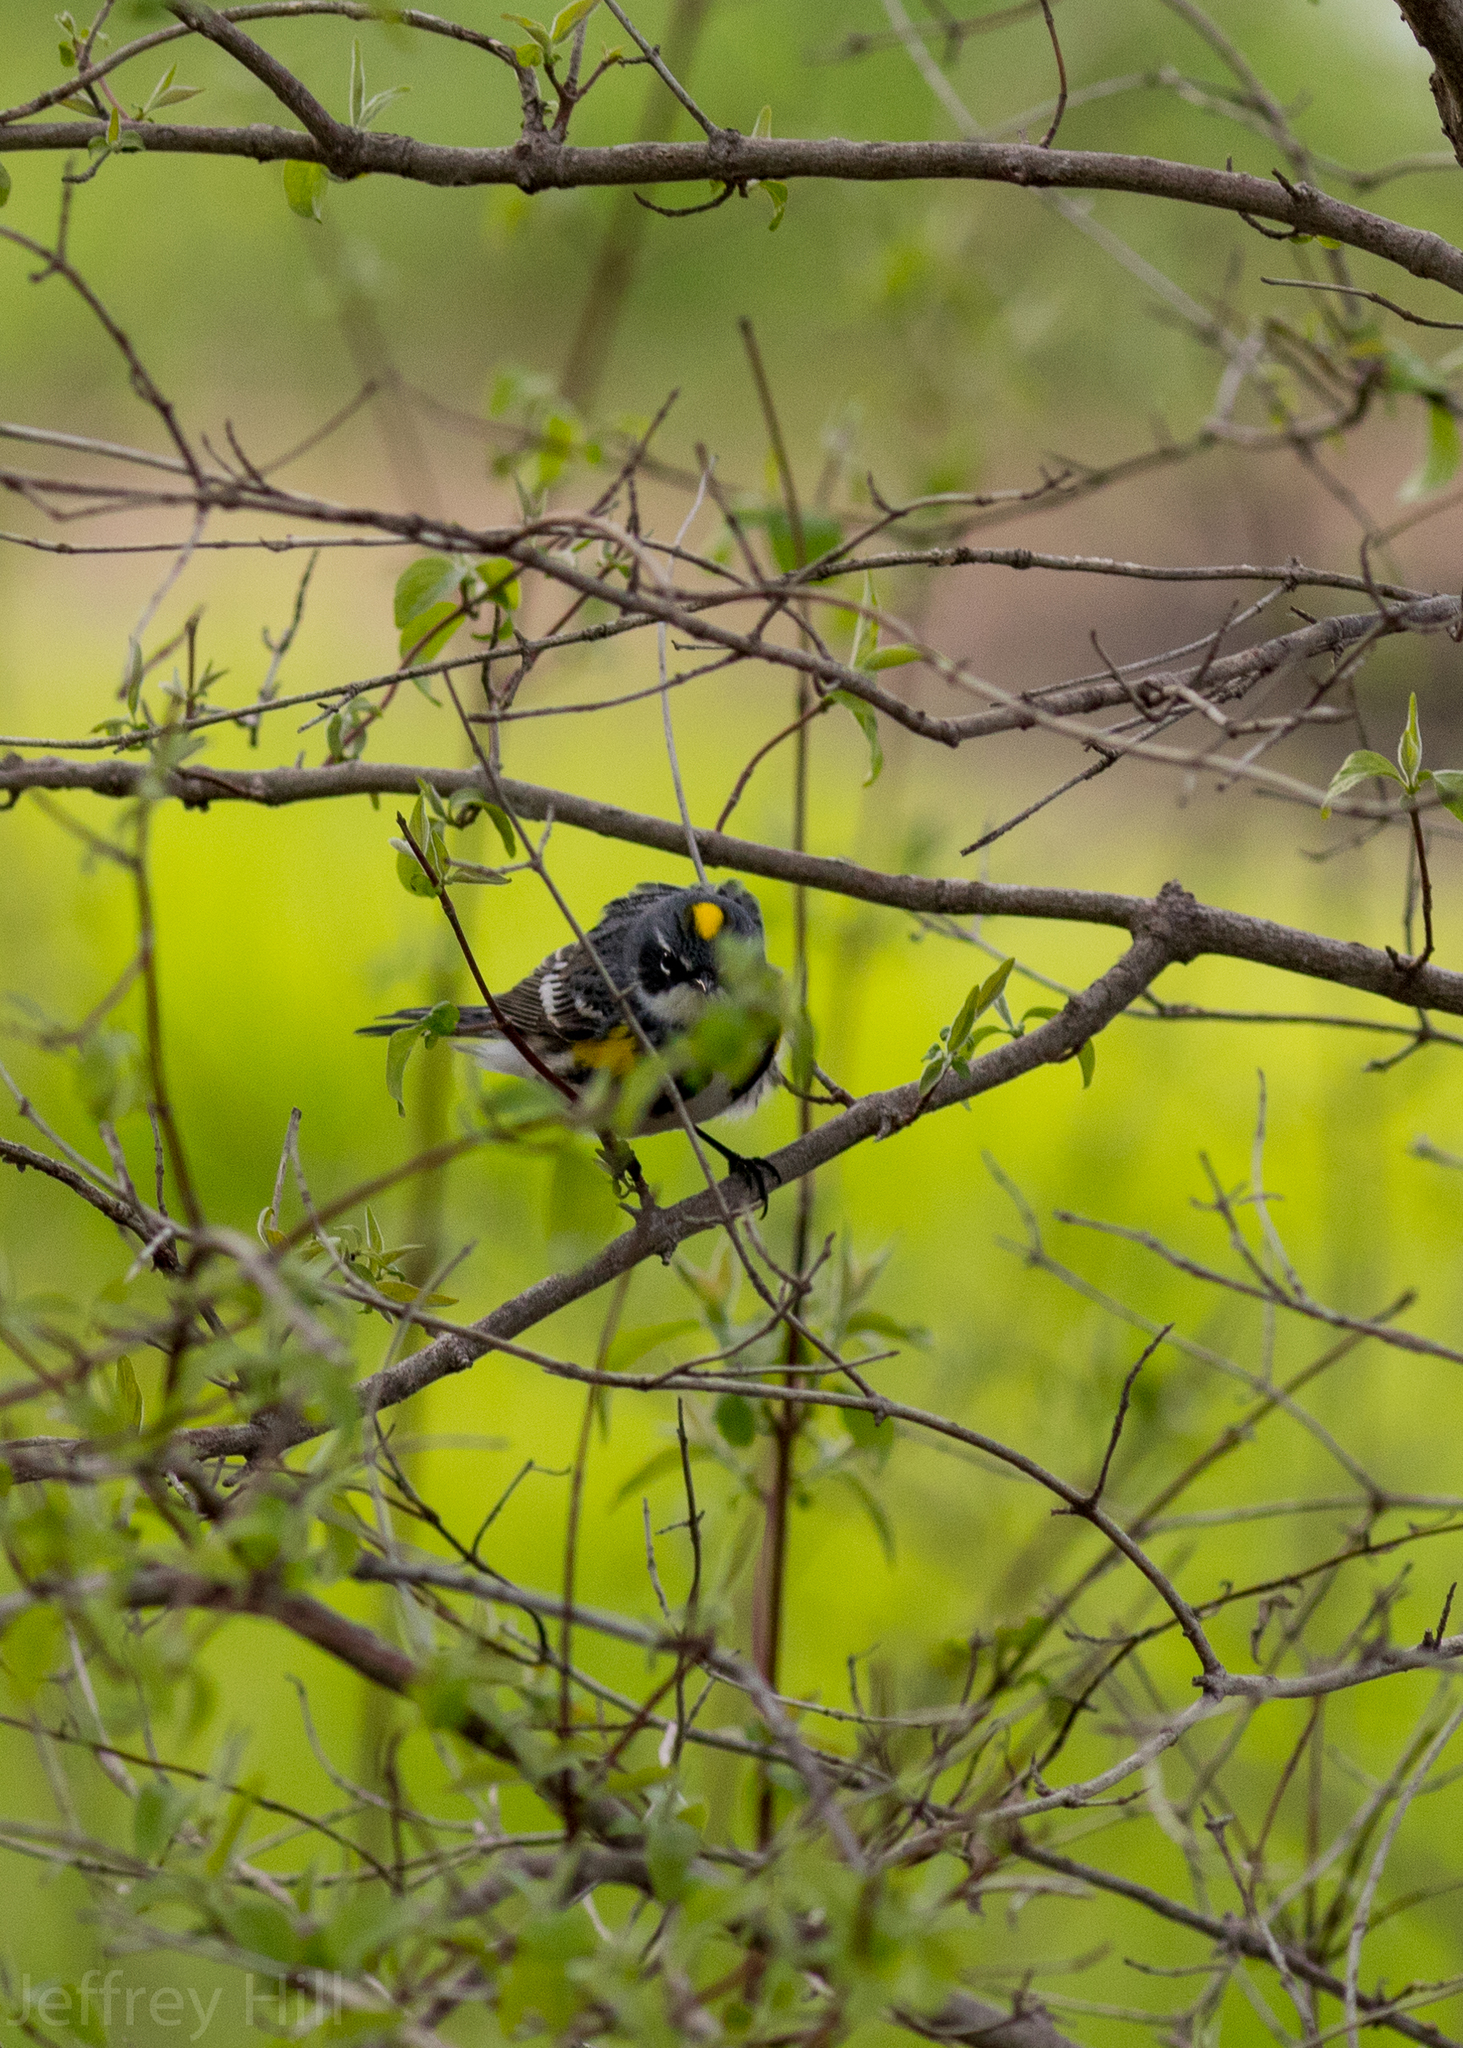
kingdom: Animalia
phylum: Chordata
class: Aves
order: Passeriformes
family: Parulidae
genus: Setophaga
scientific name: Setophaga coronata
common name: Myrtle warbler
